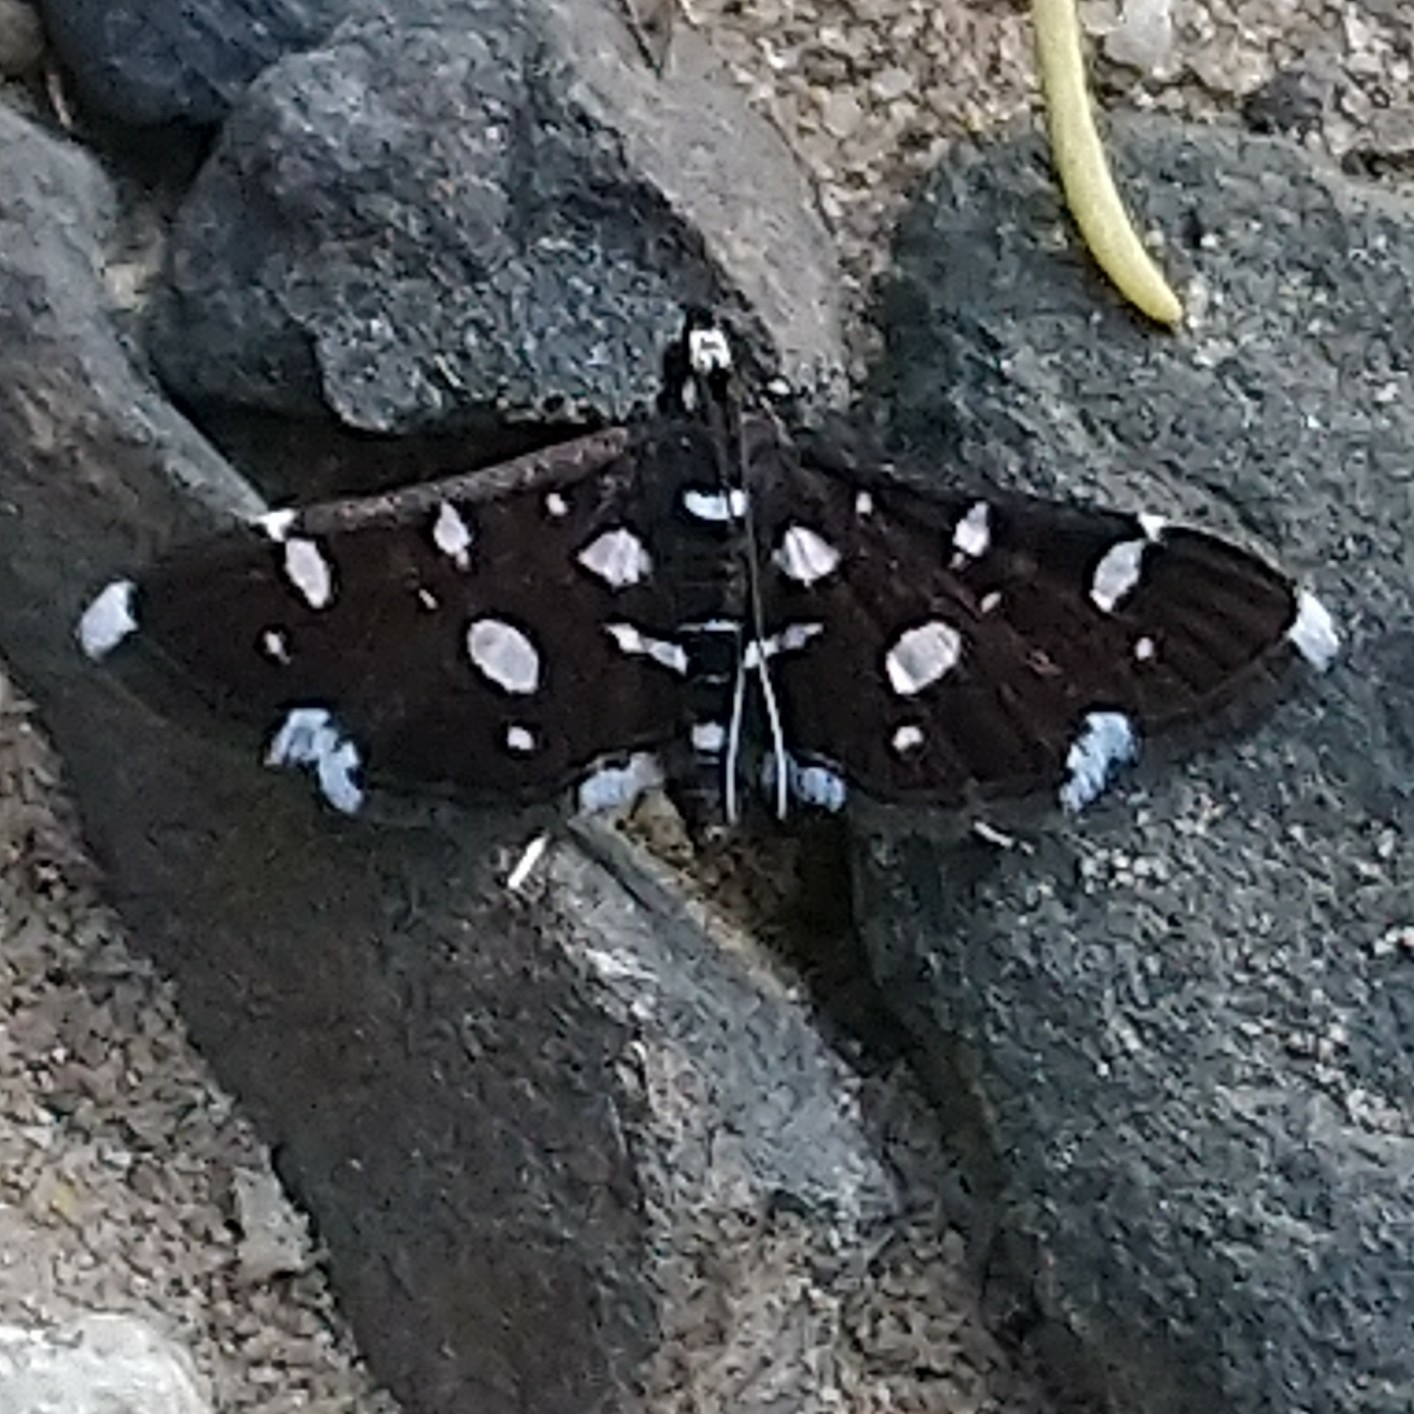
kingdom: Animalia
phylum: Arthropoda
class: Insecta
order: Lepidoptera
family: Crambidae
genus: Bocchoris
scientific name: Bocchoris inspersalis
